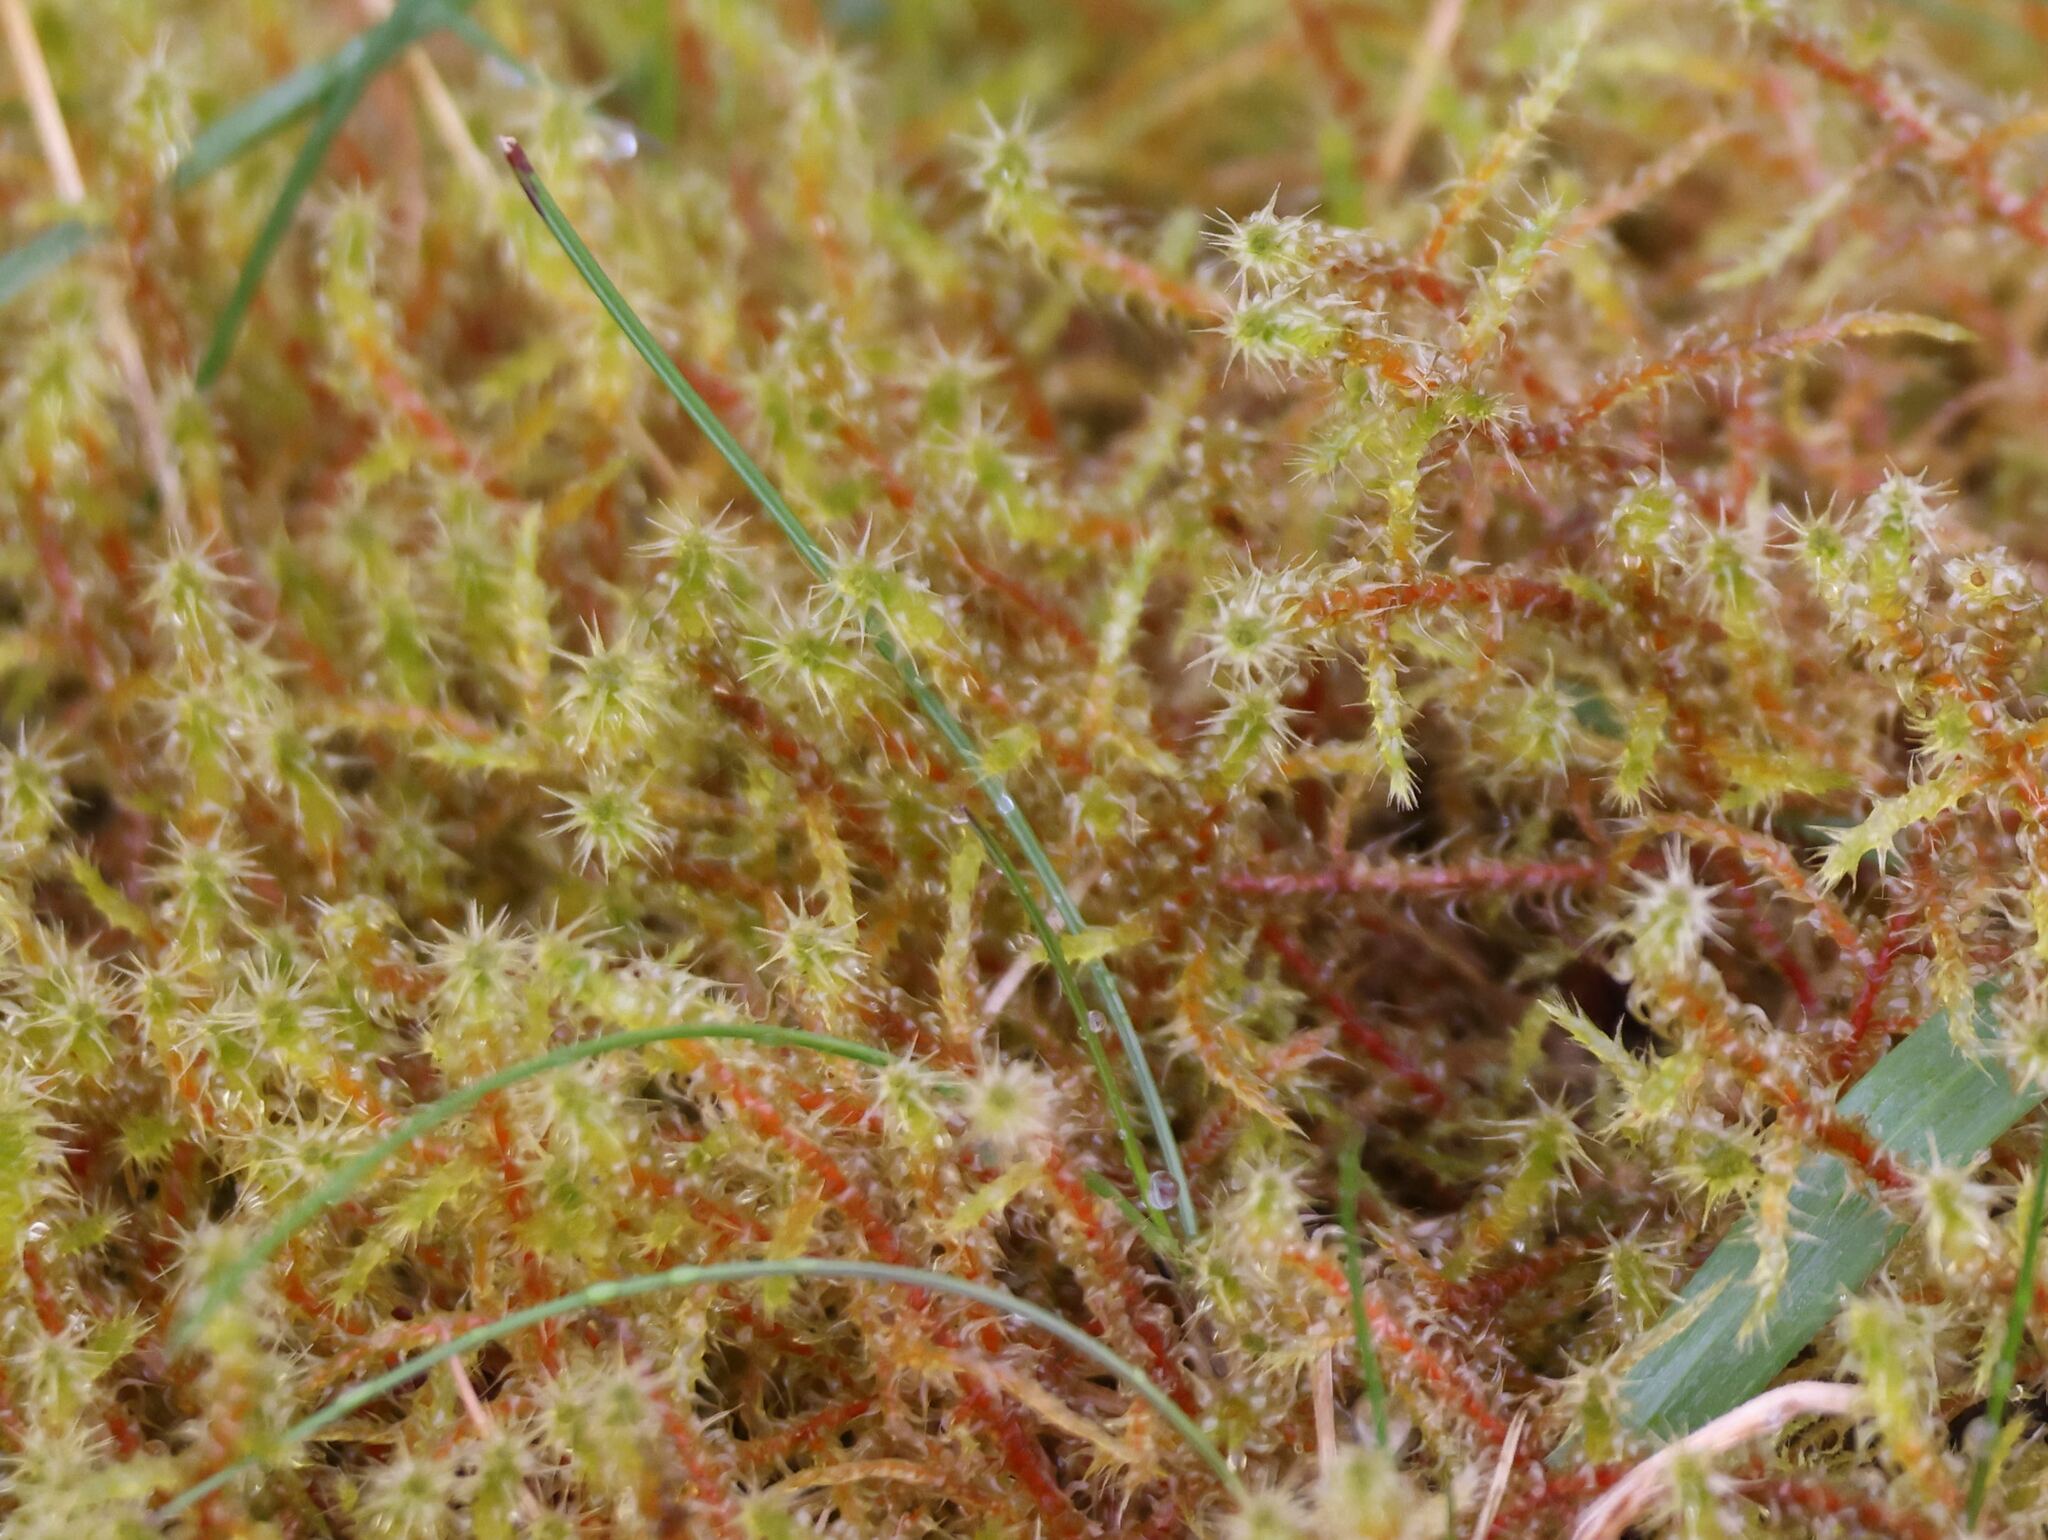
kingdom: Plantae
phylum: Bryophyta
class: Bryopsida
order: Hypnales
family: Hylocomiaceae
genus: Rhytidiadelphus
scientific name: Rhytidiadelphus squarrosus
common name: Springy turf-moss
